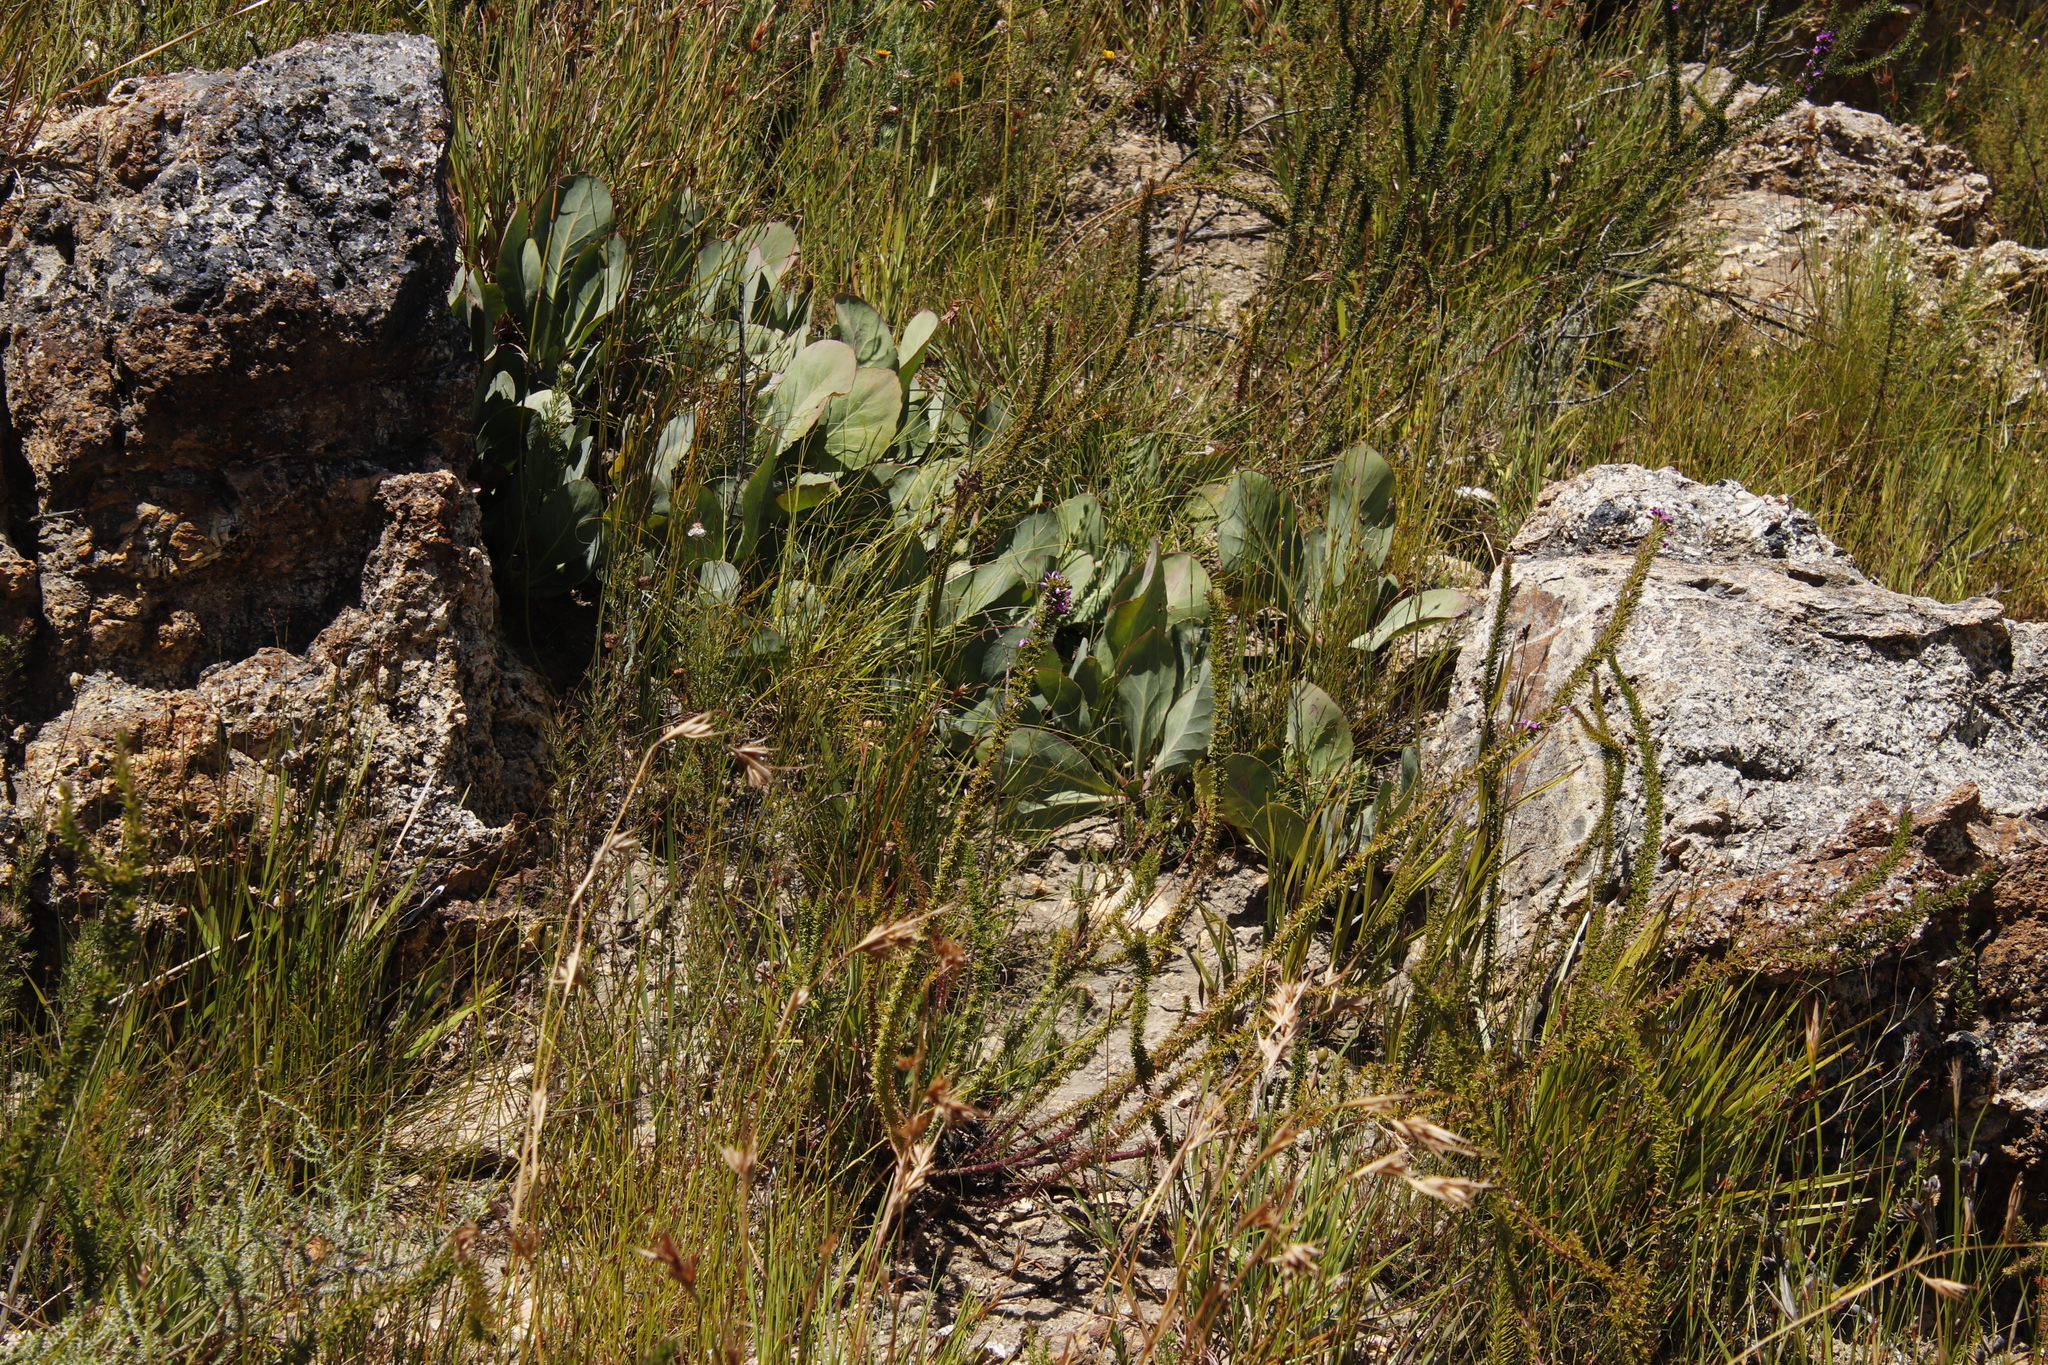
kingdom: Plantae
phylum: Tracheophyta
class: Magnoliopsida
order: Proteales
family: Proteaceae
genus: Protea
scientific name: Protea acaulos
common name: Common ground sugarbush
